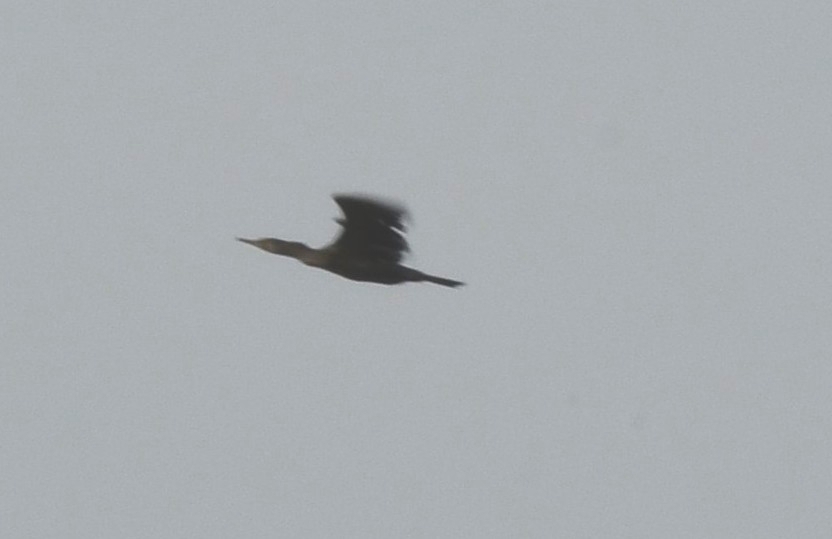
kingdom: Animalia
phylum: Chordata
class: Aves
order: Suliformes
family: Phalacrocoracidae
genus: Phalacrocorax
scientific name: Phalacrocorax fuscicollis
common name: Indian cormorant
